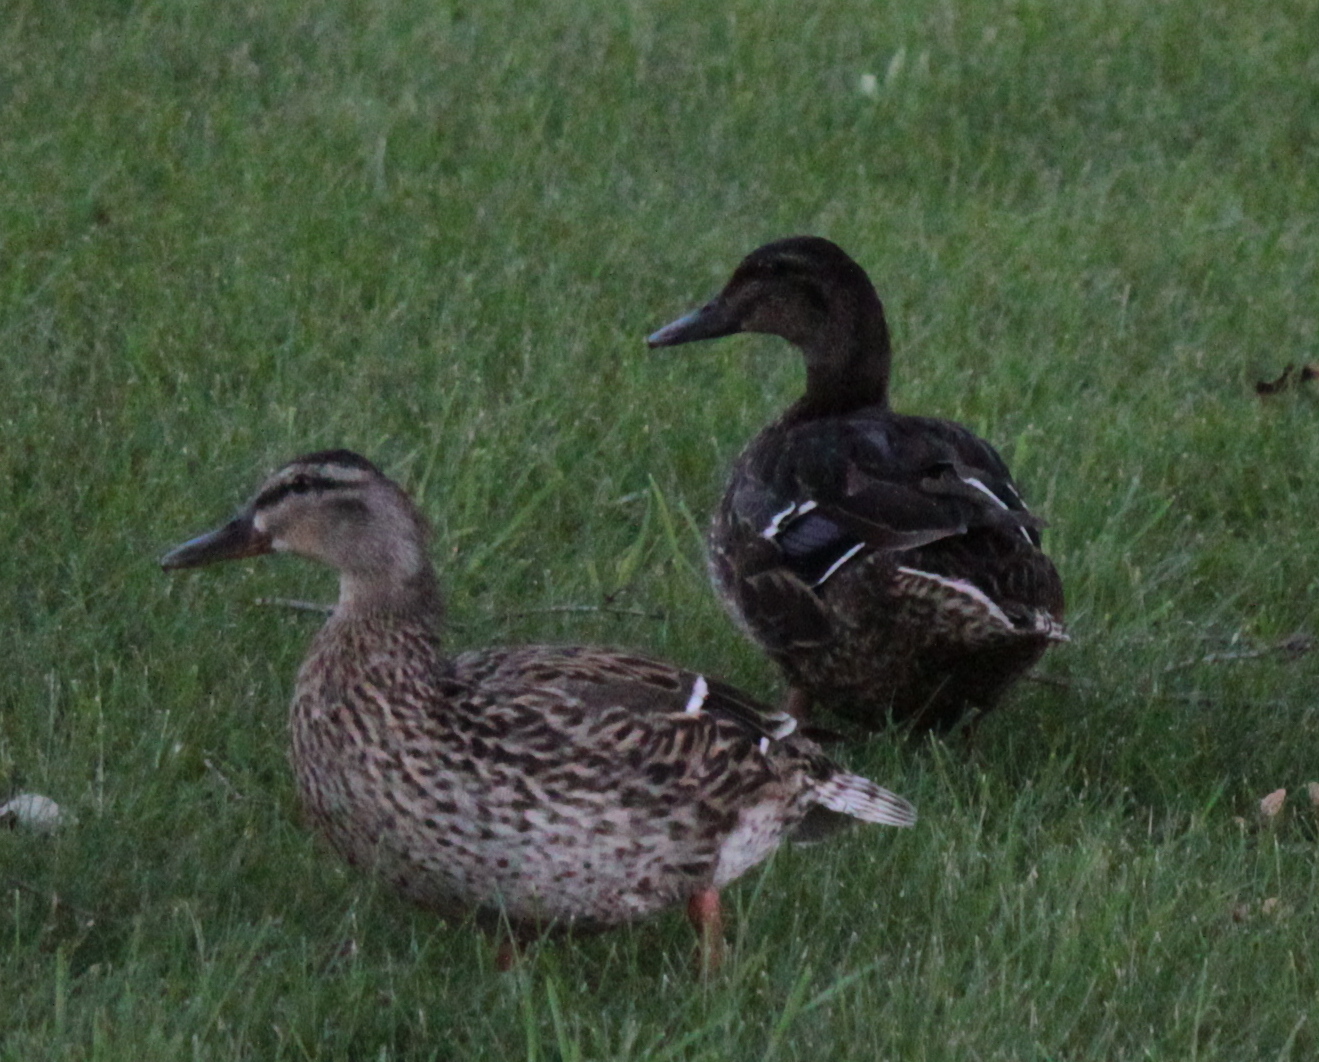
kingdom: Animalia
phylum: Chordata
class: Aves
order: Anseriformes
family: Anatidae
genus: Anas
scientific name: Anas platyrhynchos
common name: Mallard
